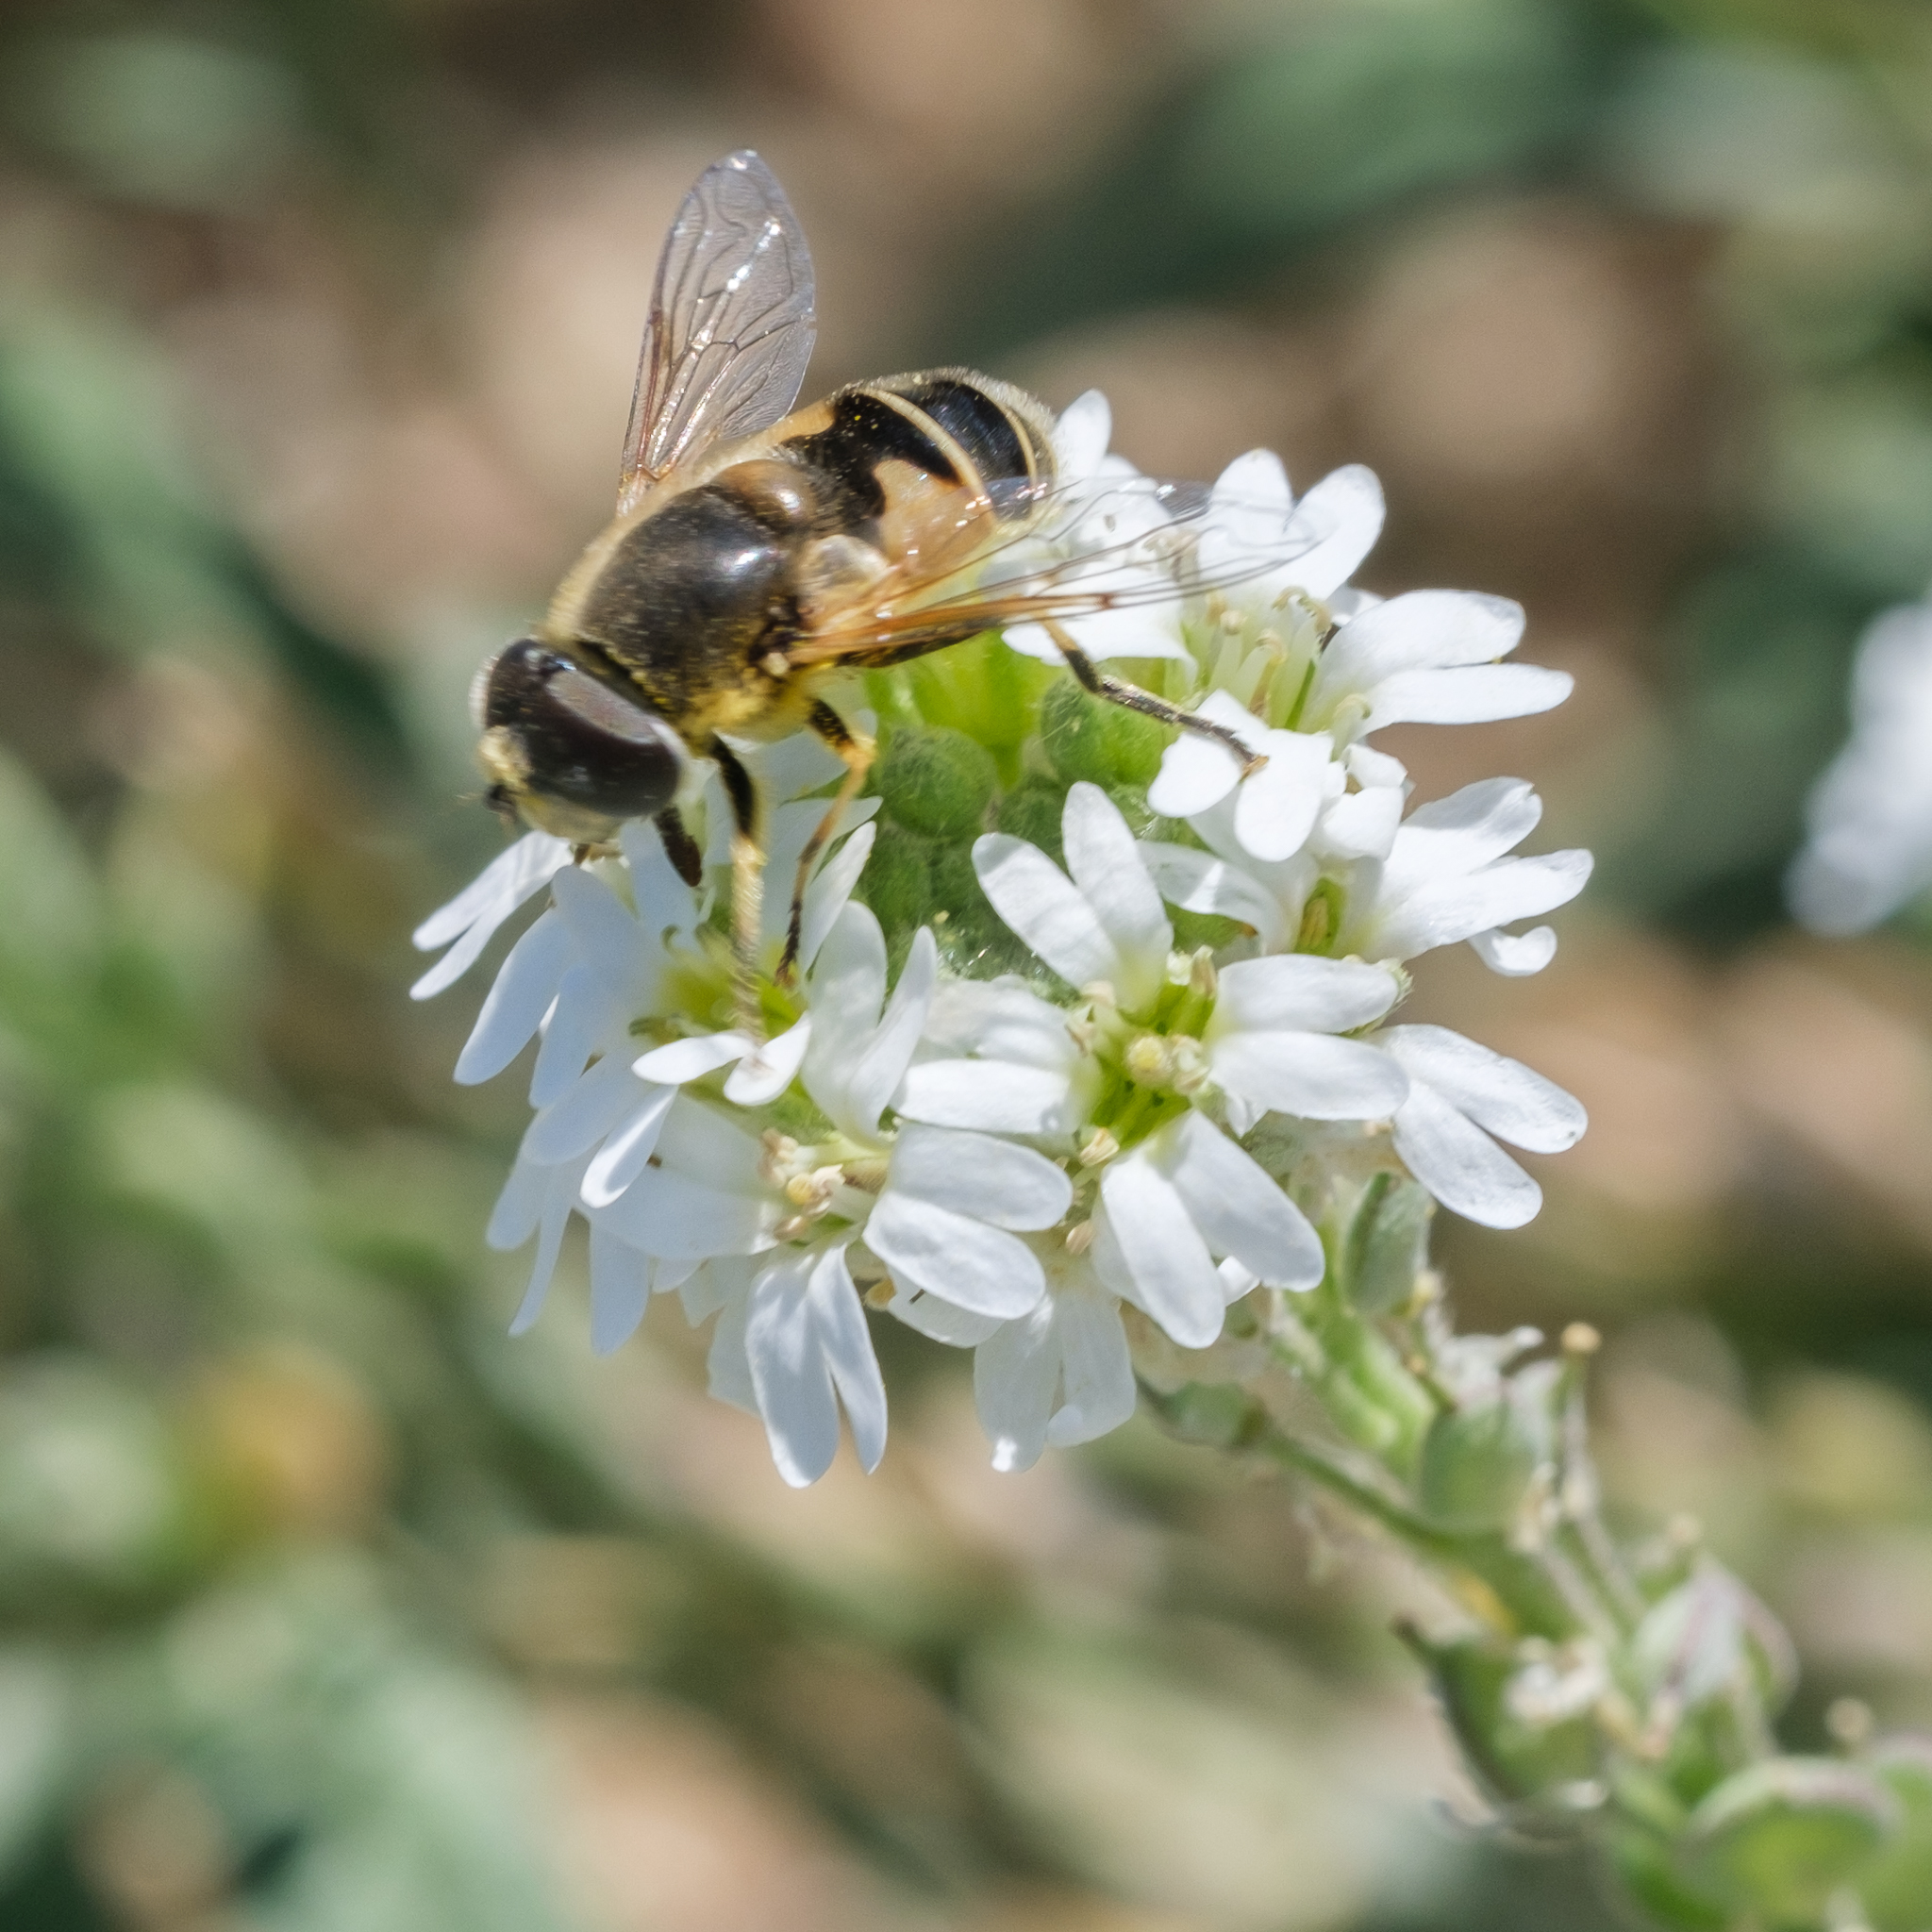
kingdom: Animalia
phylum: Arthropoda
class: Insecta
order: Diptera
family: Syrphidae
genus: Eristalis
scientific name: Eristalis hirta
